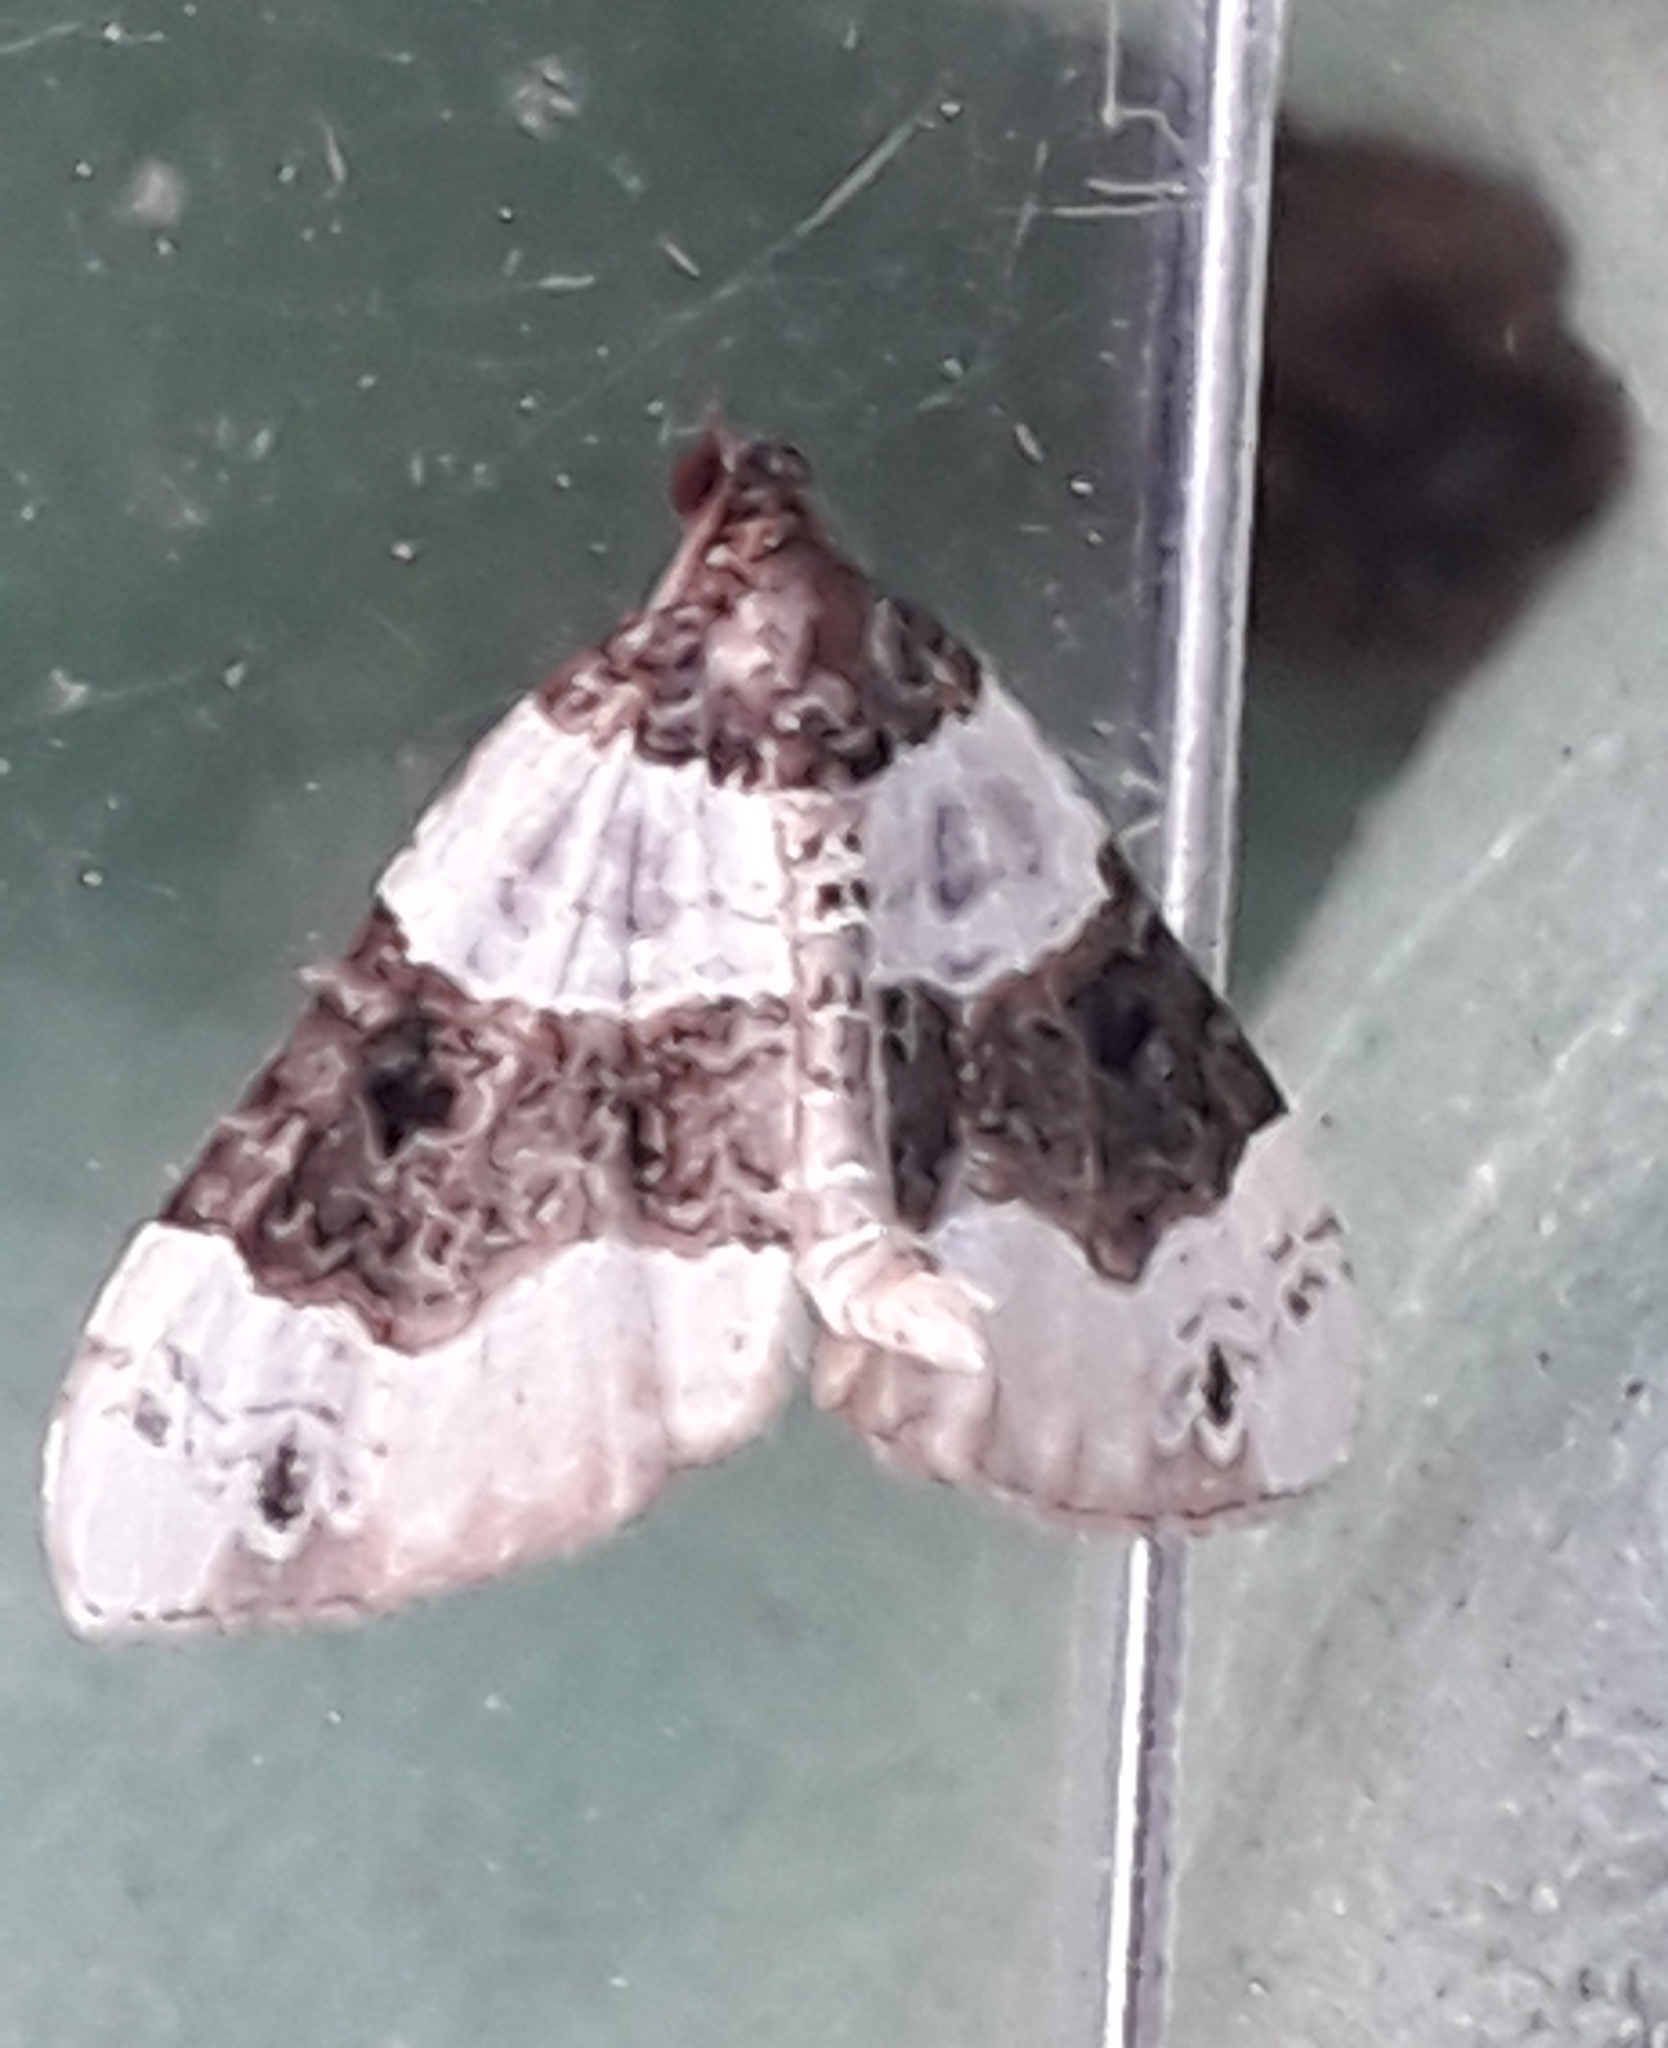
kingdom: Animalia
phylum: Arthropoda
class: Insecta
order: Lepidoptera
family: Geometridae
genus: Cosmorhoe
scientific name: Cosmorhoe ocellata
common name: Purple bar
